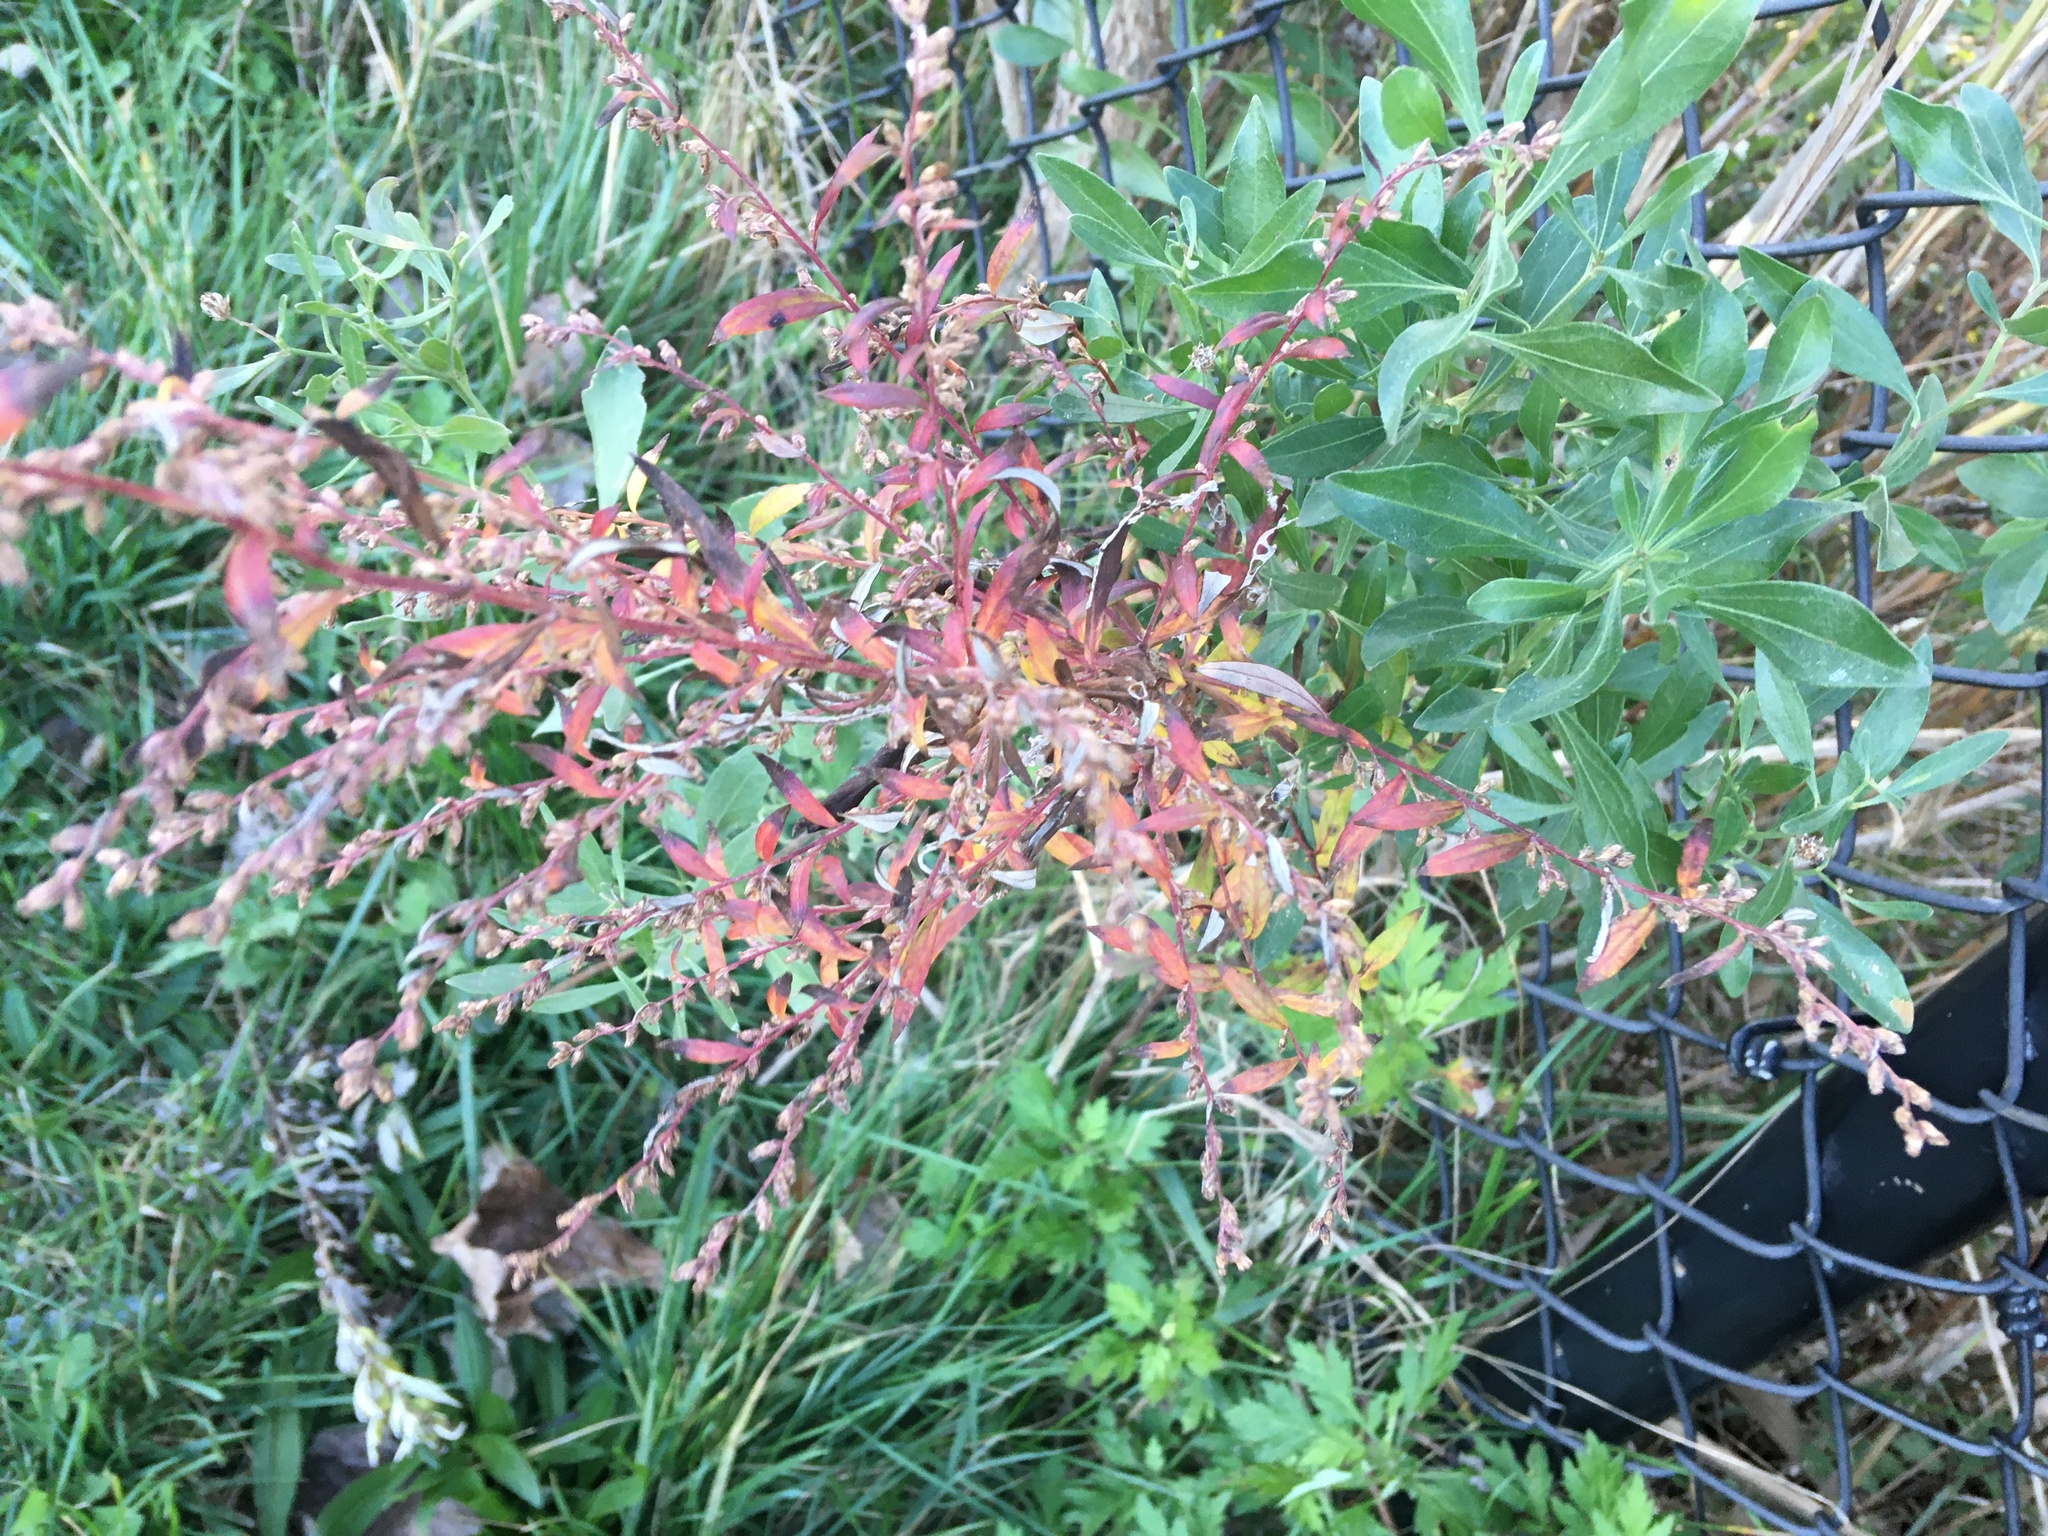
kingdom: Plantae
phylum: Tracheophyta
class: Magnoliopsida
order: Asterales
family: Asteraceae
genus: Artemisia
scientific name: Artemisia vulgaris
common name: Mugwort
